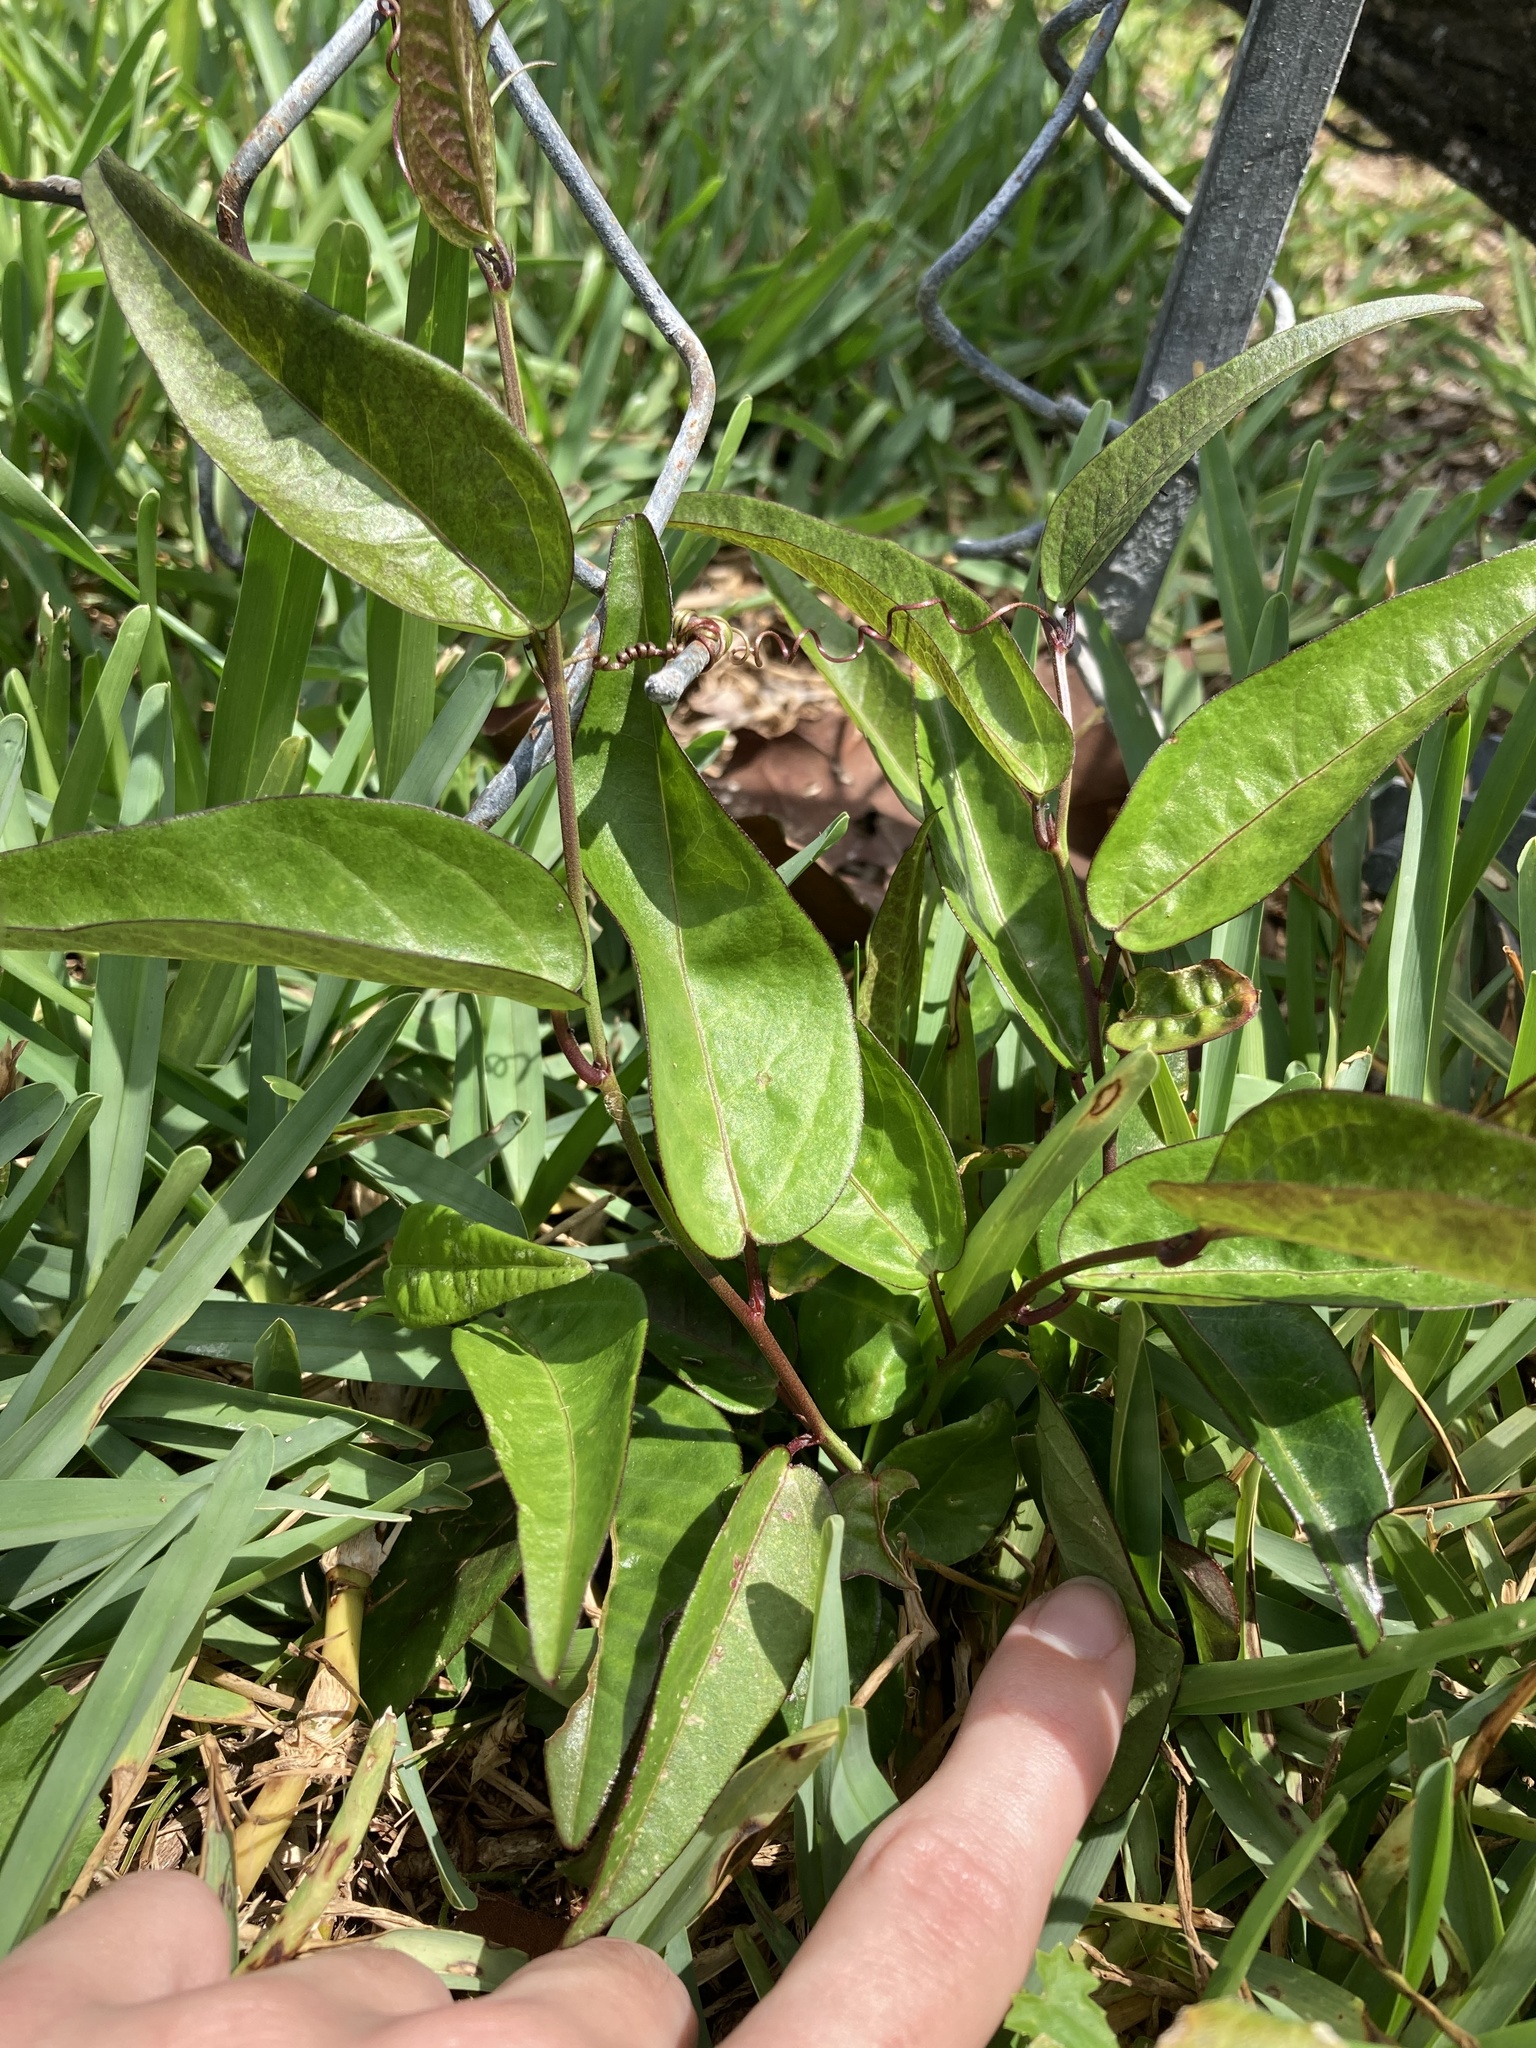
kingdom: Plantae
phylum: Tracheophyta
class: Magnoliopsida
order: Malpighiales
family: Passifloraceae
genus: Passiflora
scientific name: Passiflora pallida
